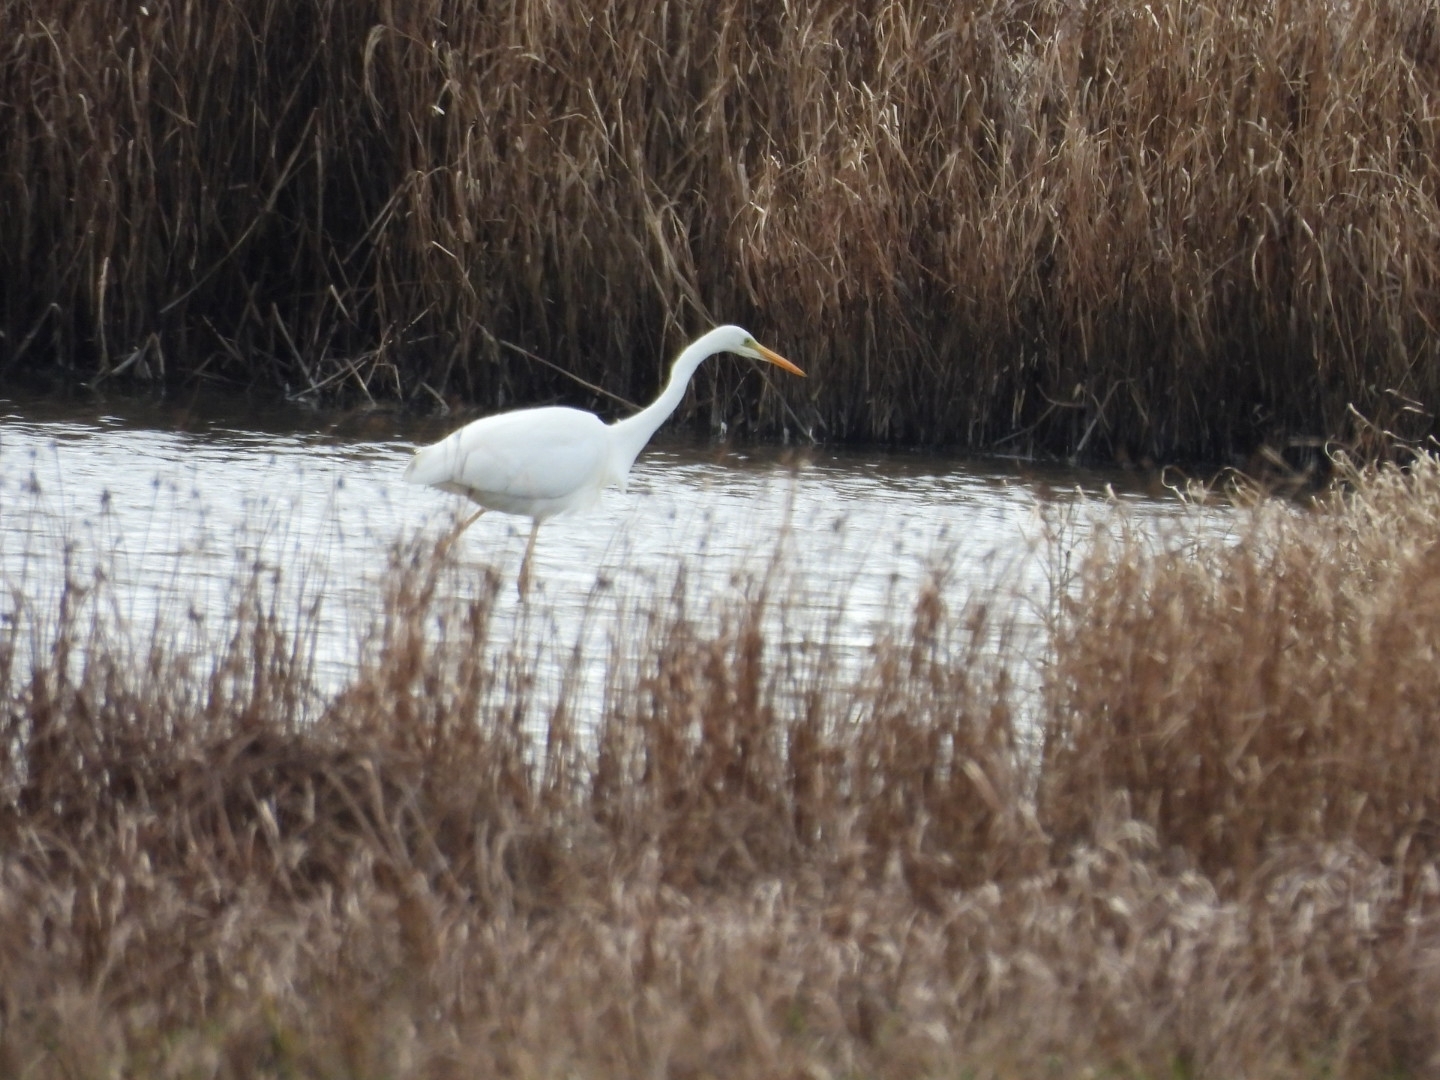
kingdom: Animalia
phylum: Chordata
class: Aves
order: Pelecaniformes
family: Ardeidae
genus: Ardea
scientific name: Ardea alba
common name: Great egret
